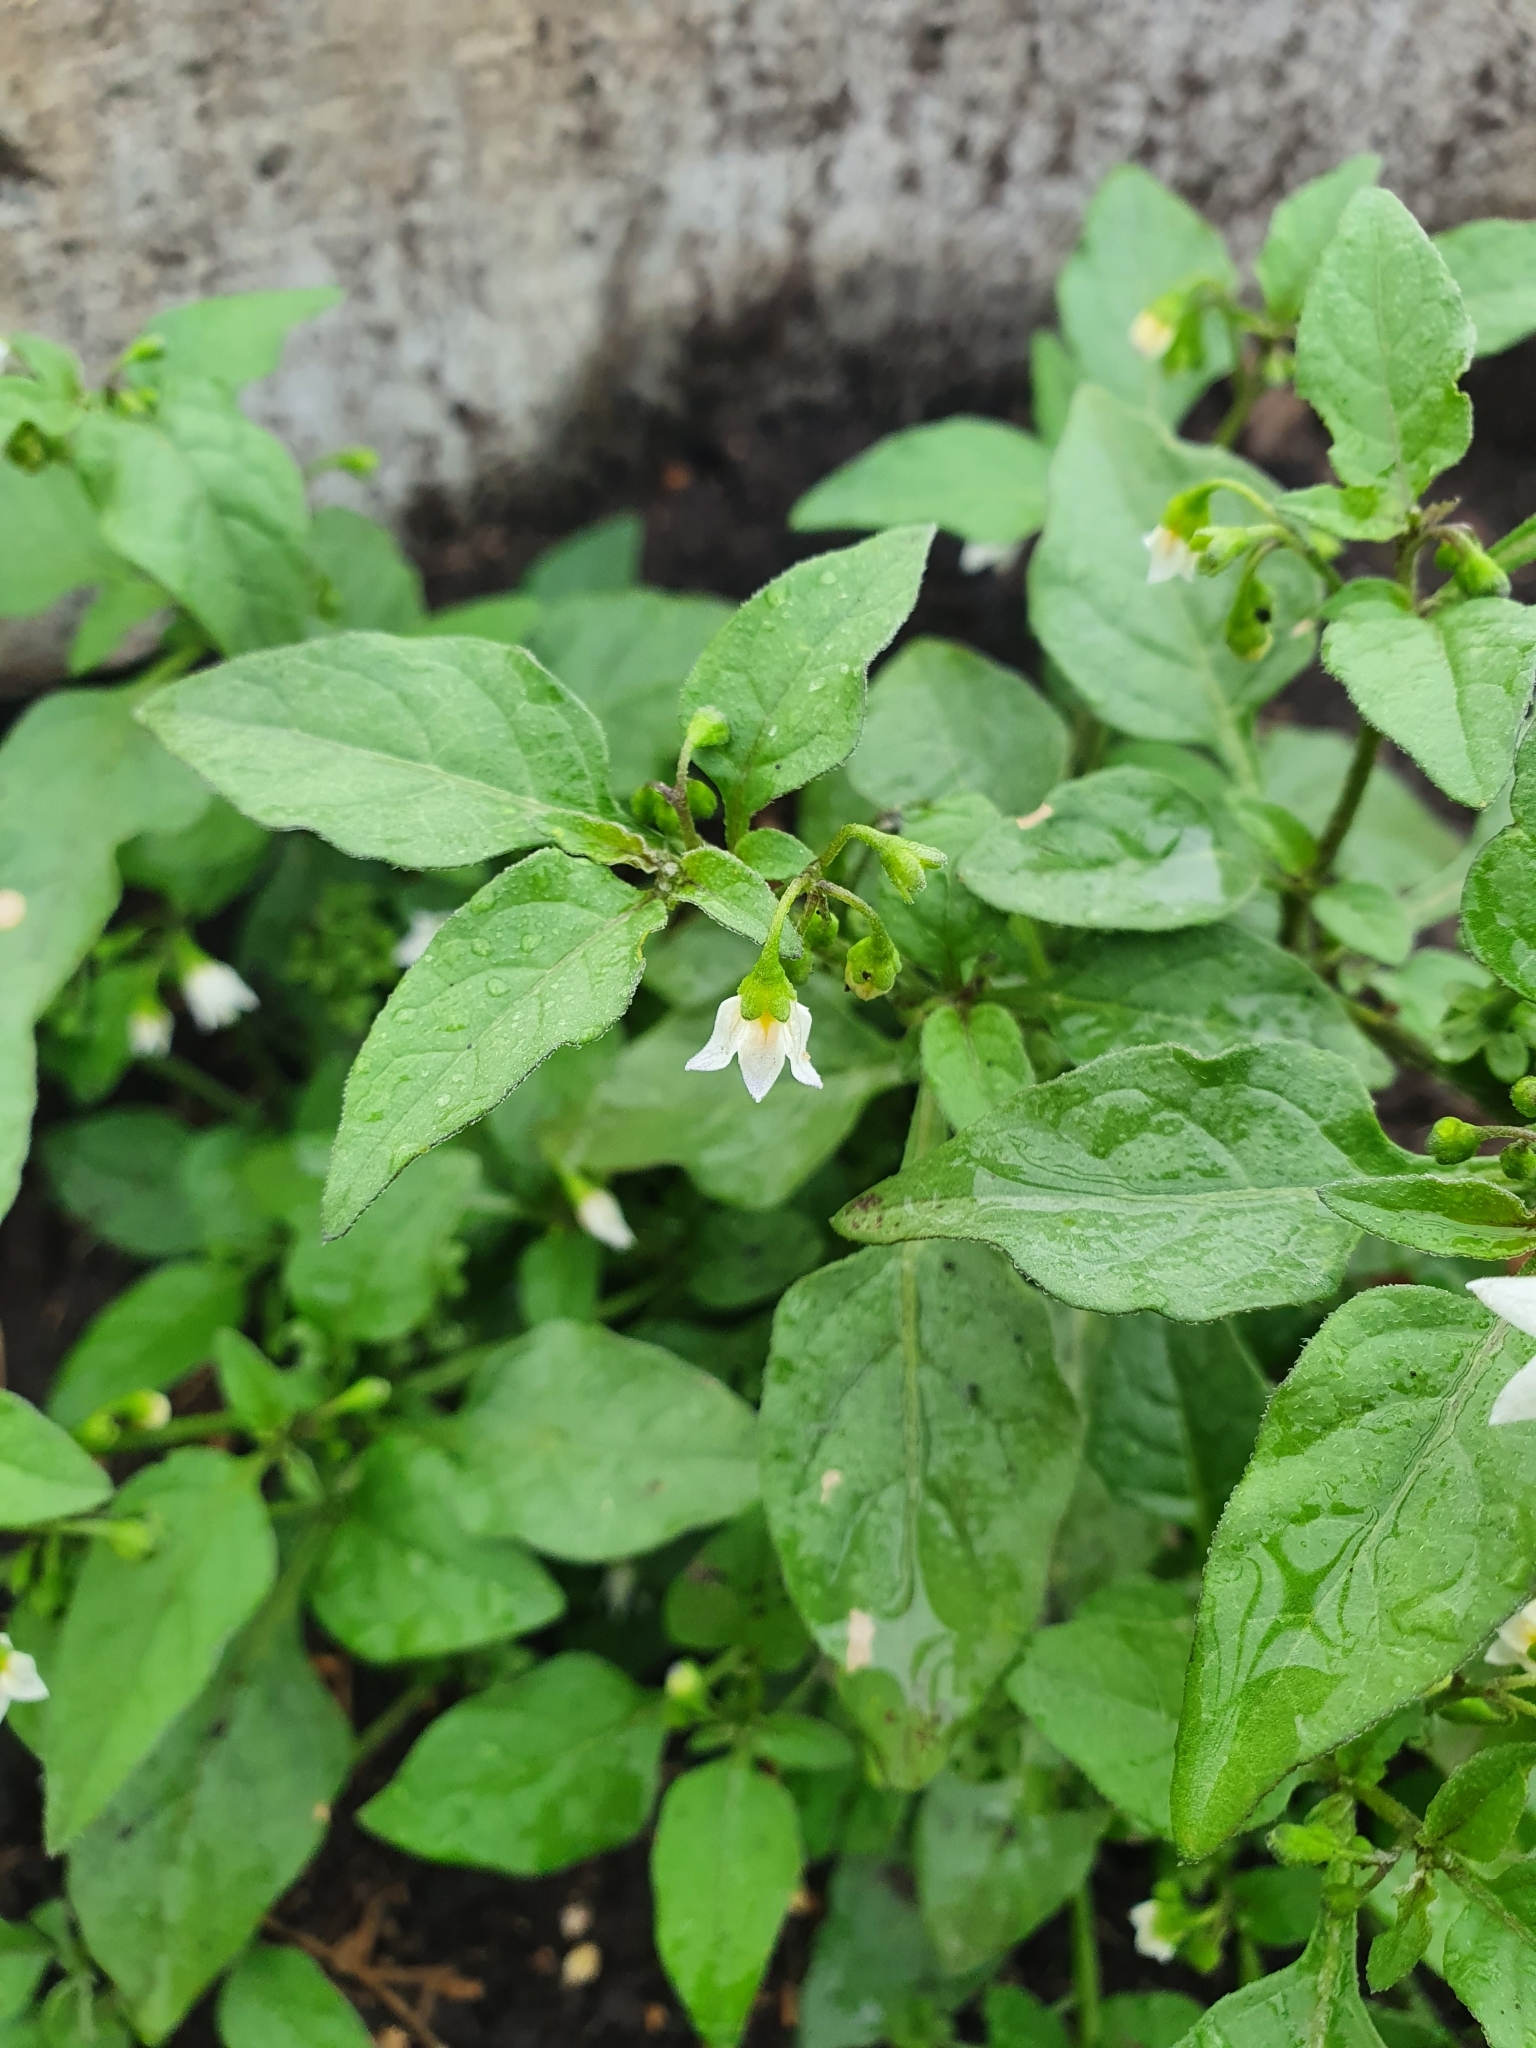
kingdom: Plantae
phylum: Tracheophyta
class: Magnoliopsida
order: Solanales
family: Solanaceae
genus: Solanum
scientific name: Solanum nigrum
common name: Black nightshade
